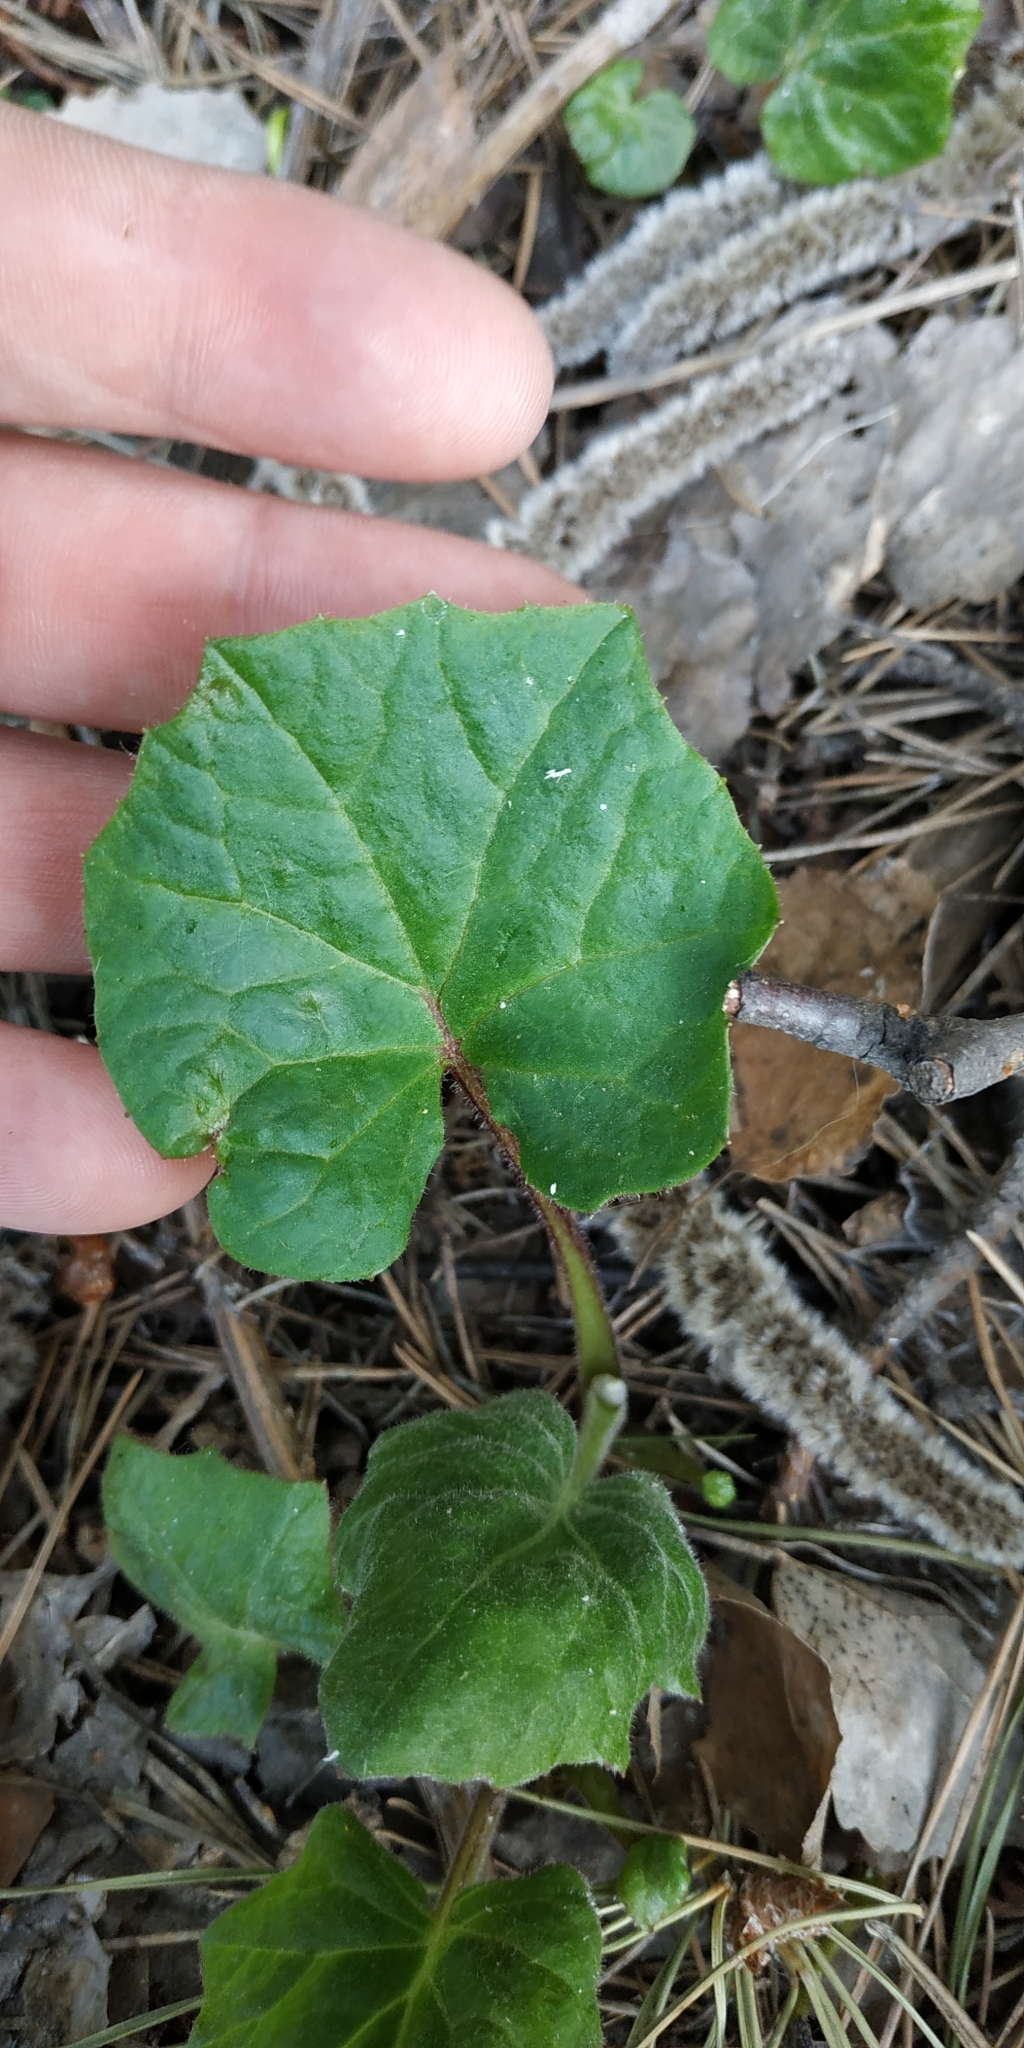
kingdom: Plantae
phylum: Tracheophyta
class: Magnoliopsida
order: Asterales
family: Asteraceae
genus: Tussilago
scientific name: Tussilago farfara
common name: Coltsfoot
